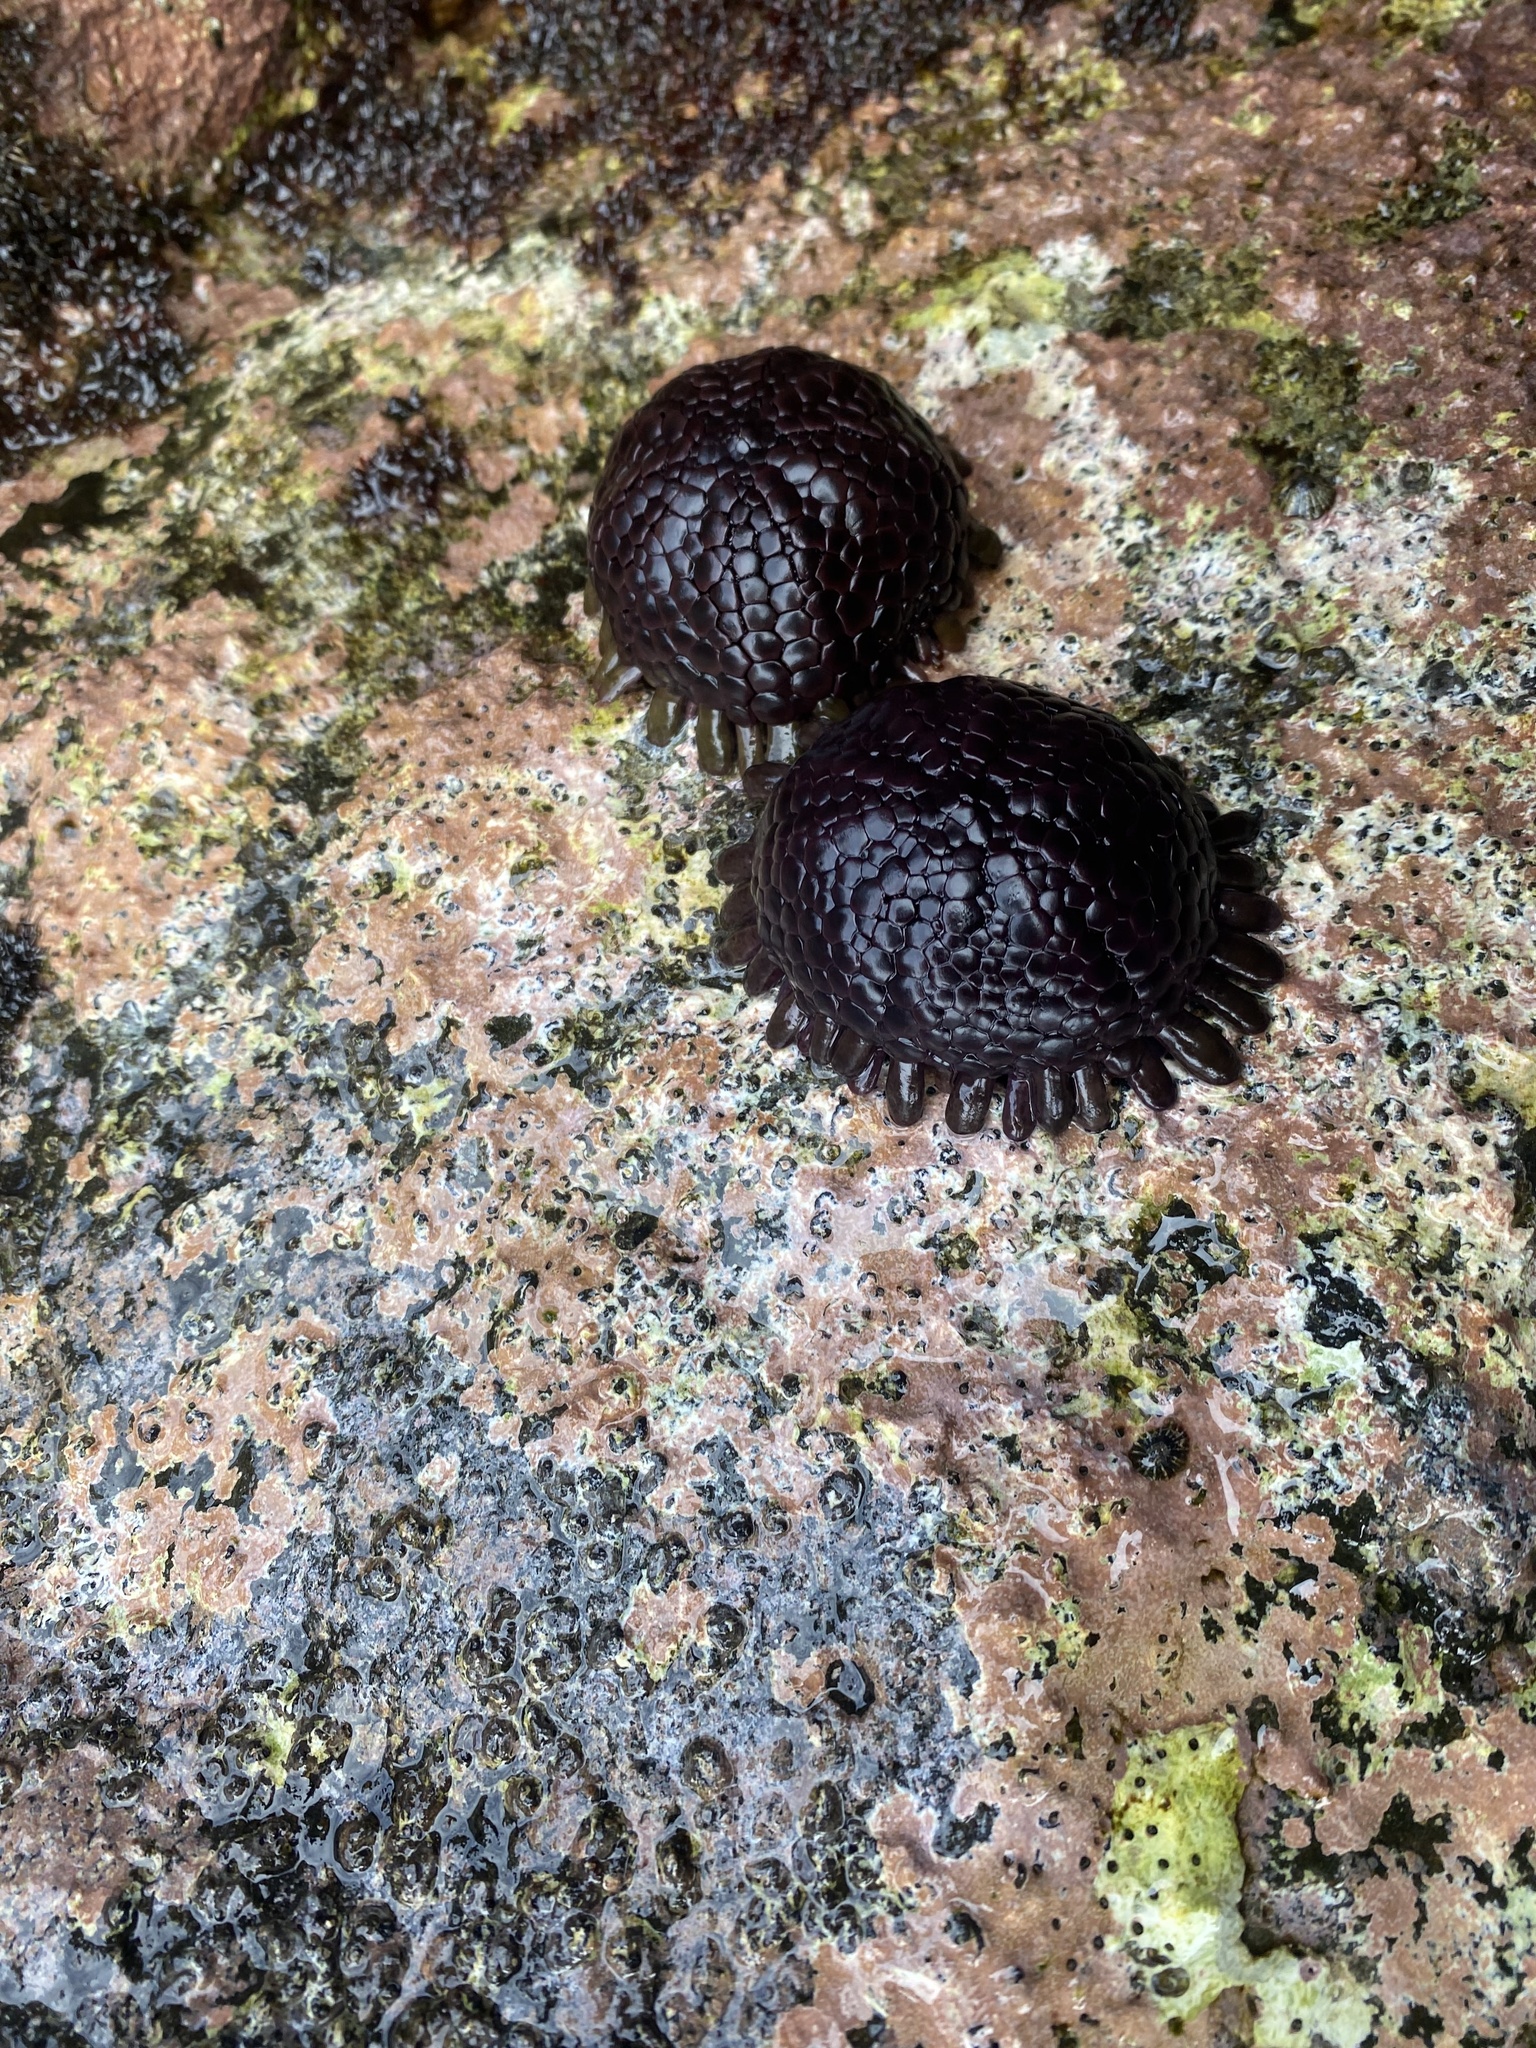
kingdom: Animalia
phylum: Echinodermata
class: Echinoidea
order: Camarodonta
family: Echinometridae
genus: Colobocentrotus
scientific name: Colobocentrotus atratus
